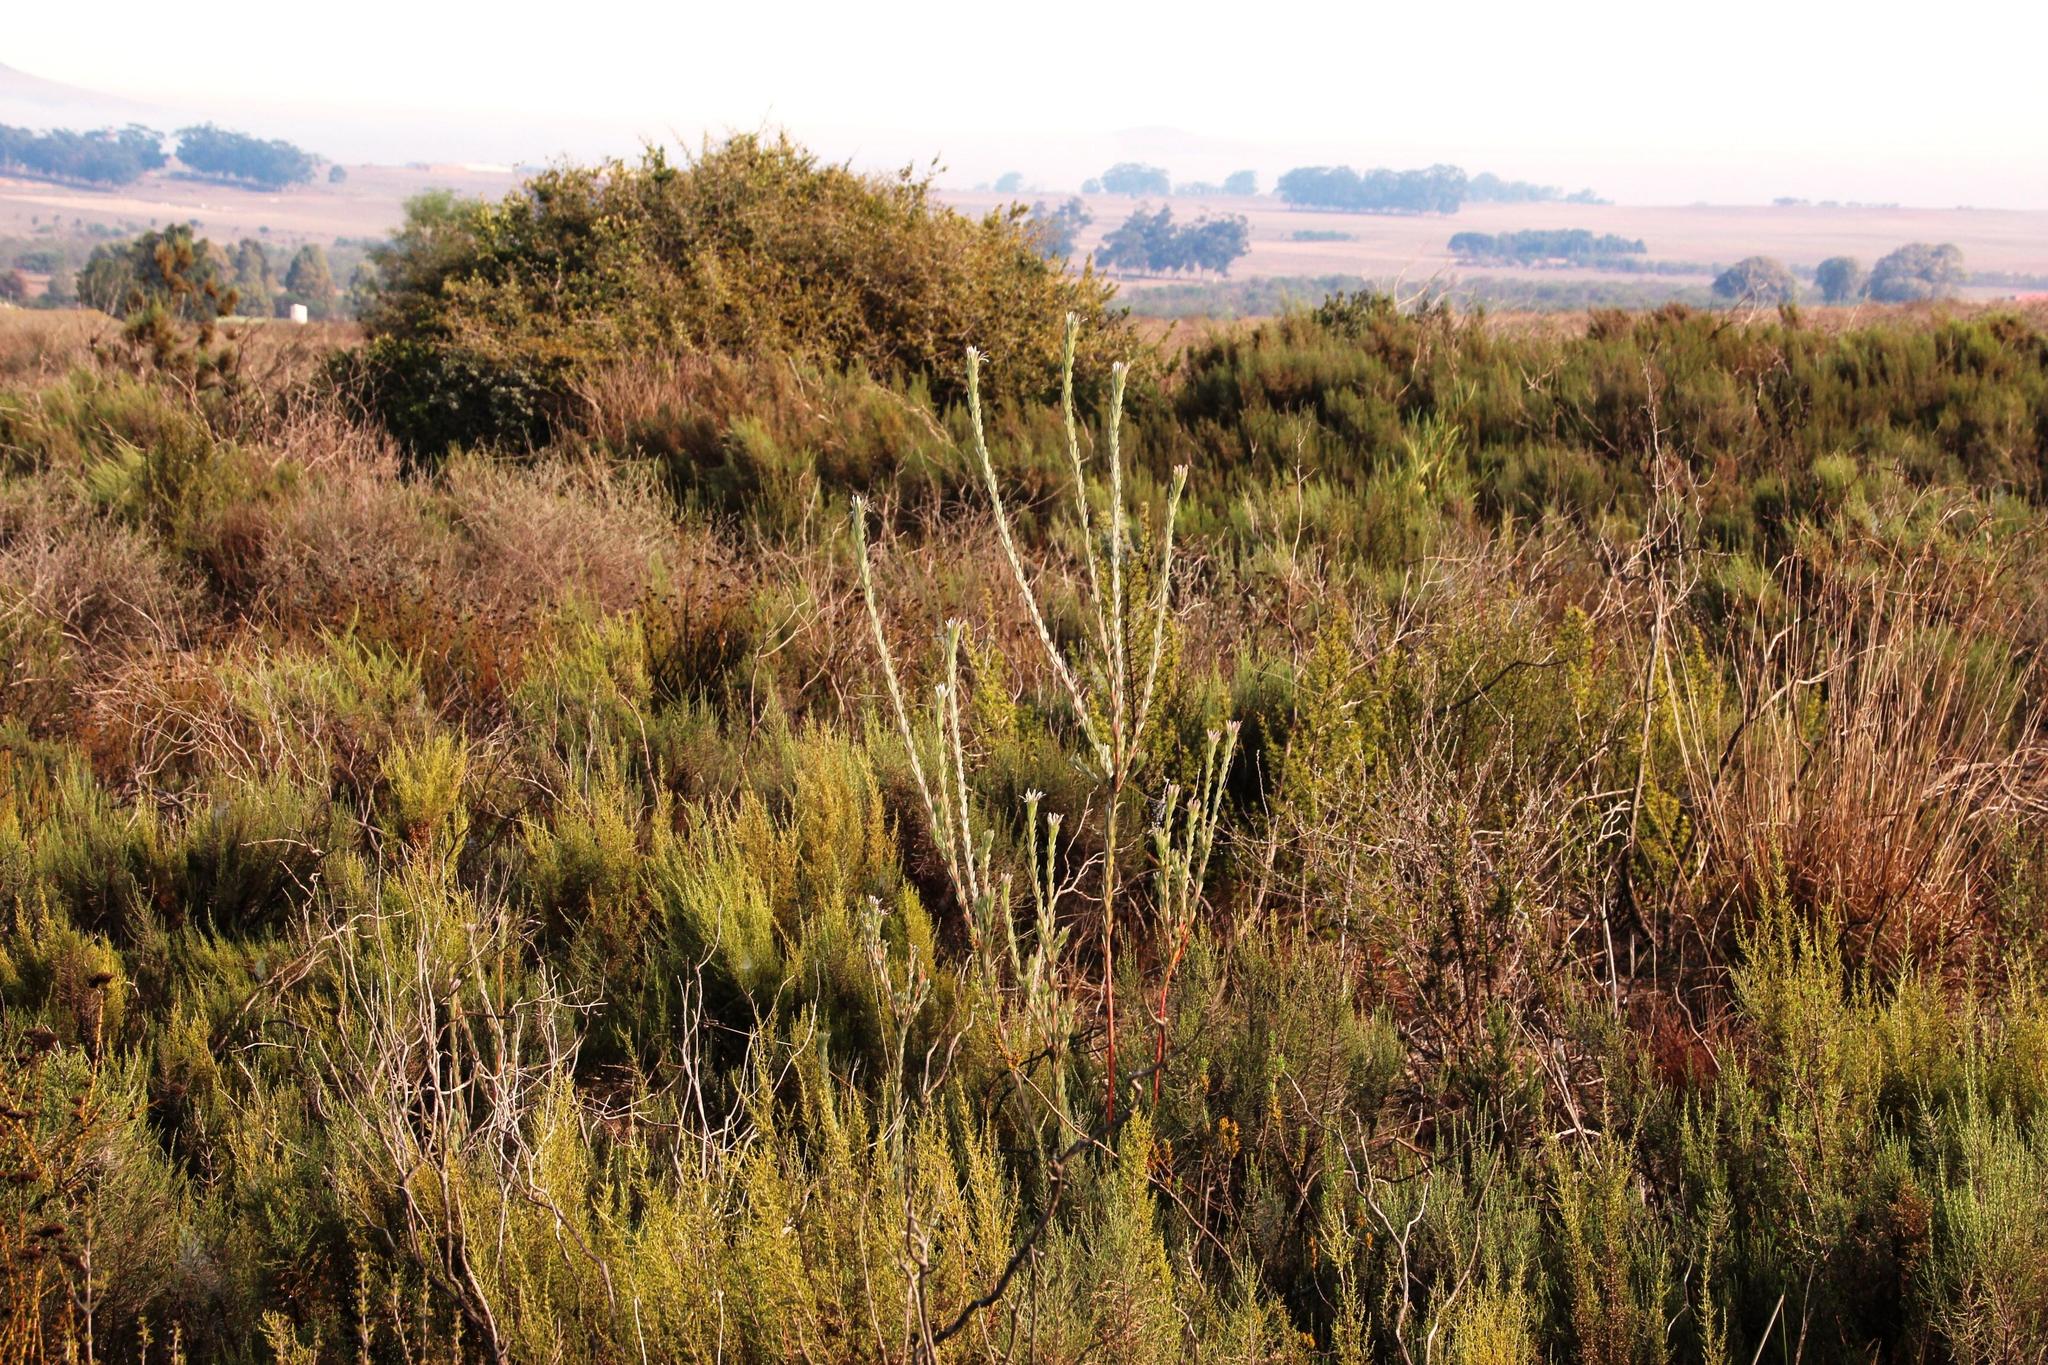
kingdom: Plantae
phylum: Tracheophyta
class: Magnoliopsida
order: Proteales
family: Proteaceae
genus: Leucadendron
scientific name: Leucadendron verticillatum
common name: Klapmuts conebush
